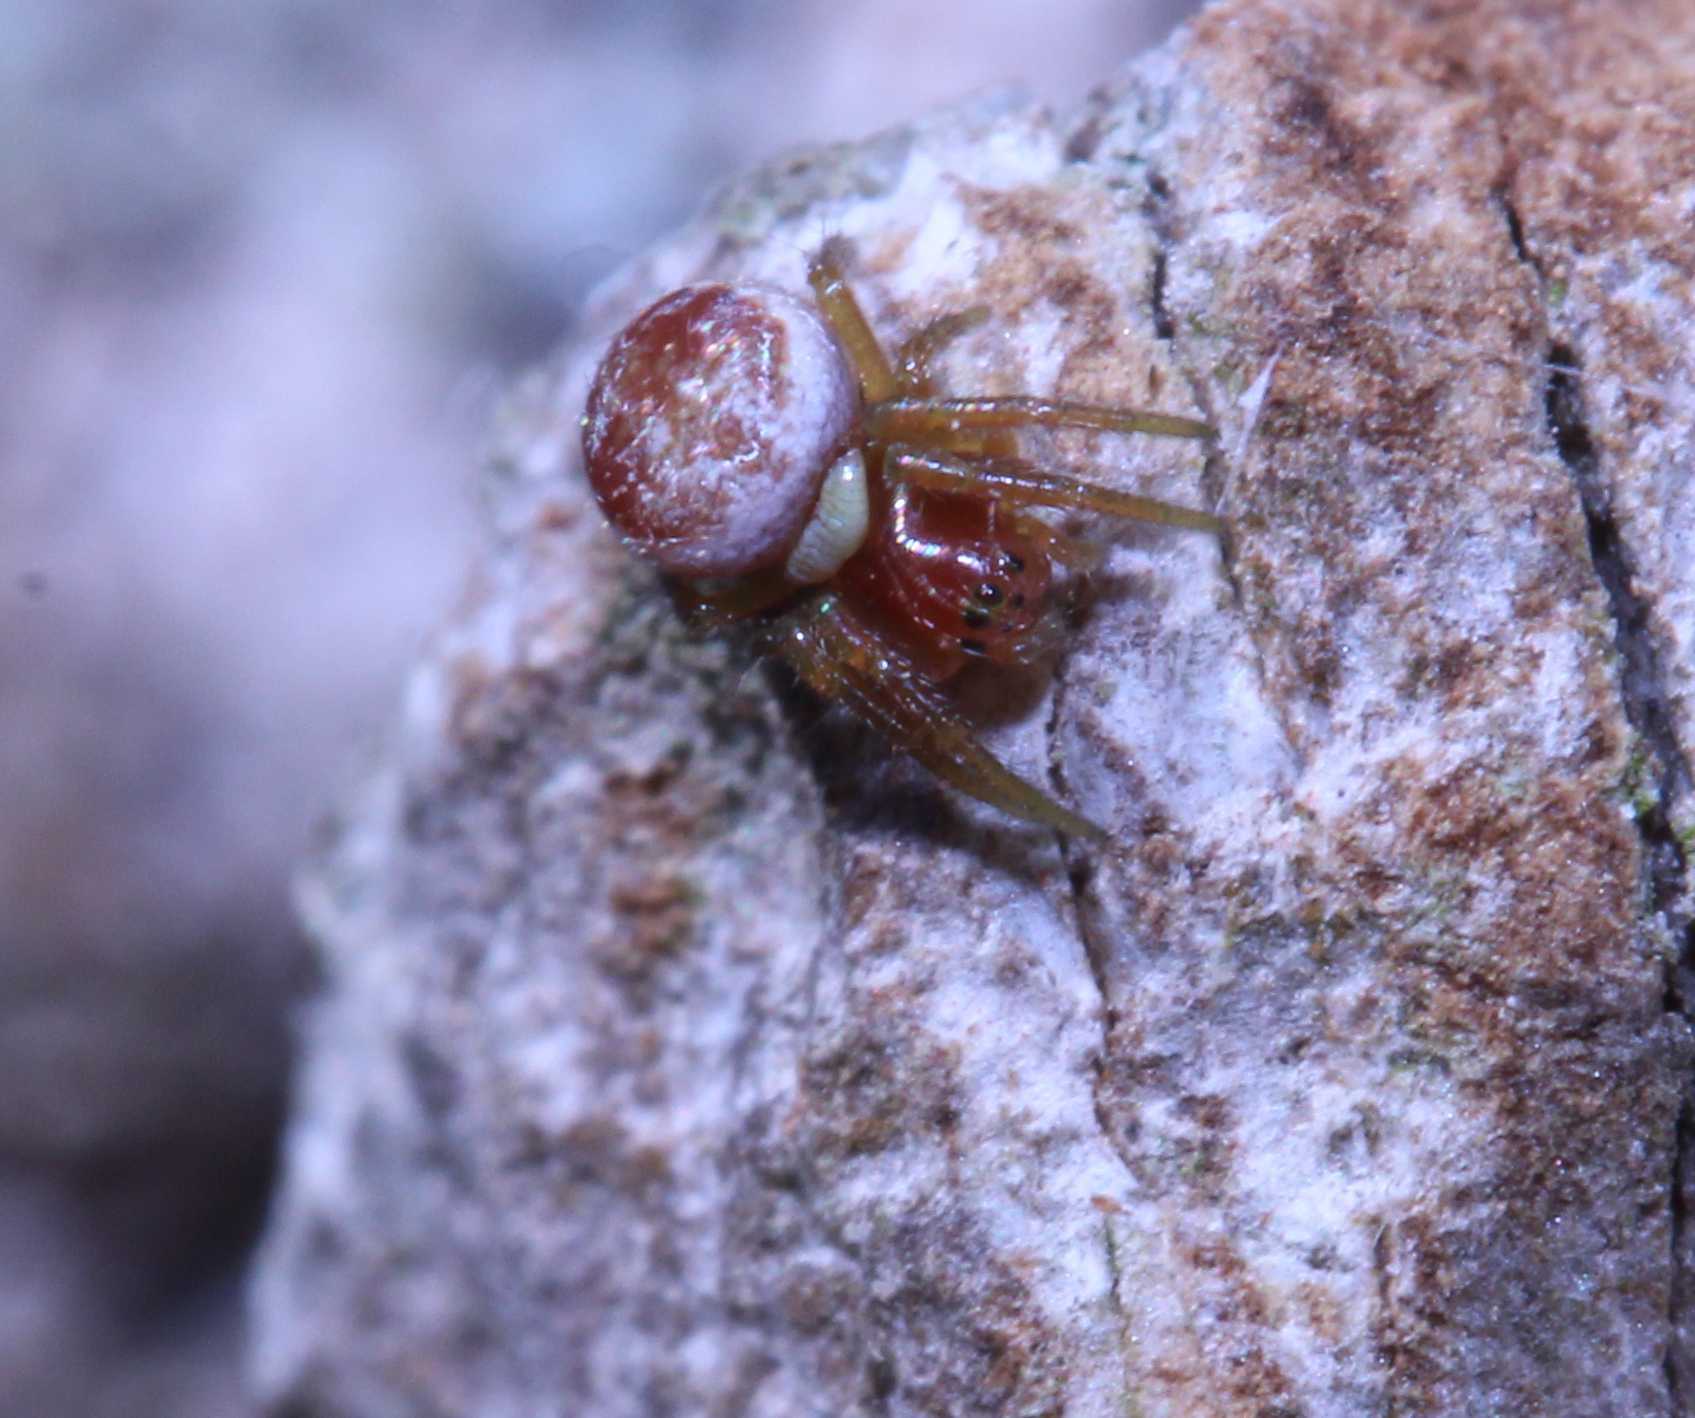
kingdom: Animalia
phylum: Arthropoda
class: Insecta
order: Hymenoptera
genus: Ephialtina
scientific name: Ephialtina
